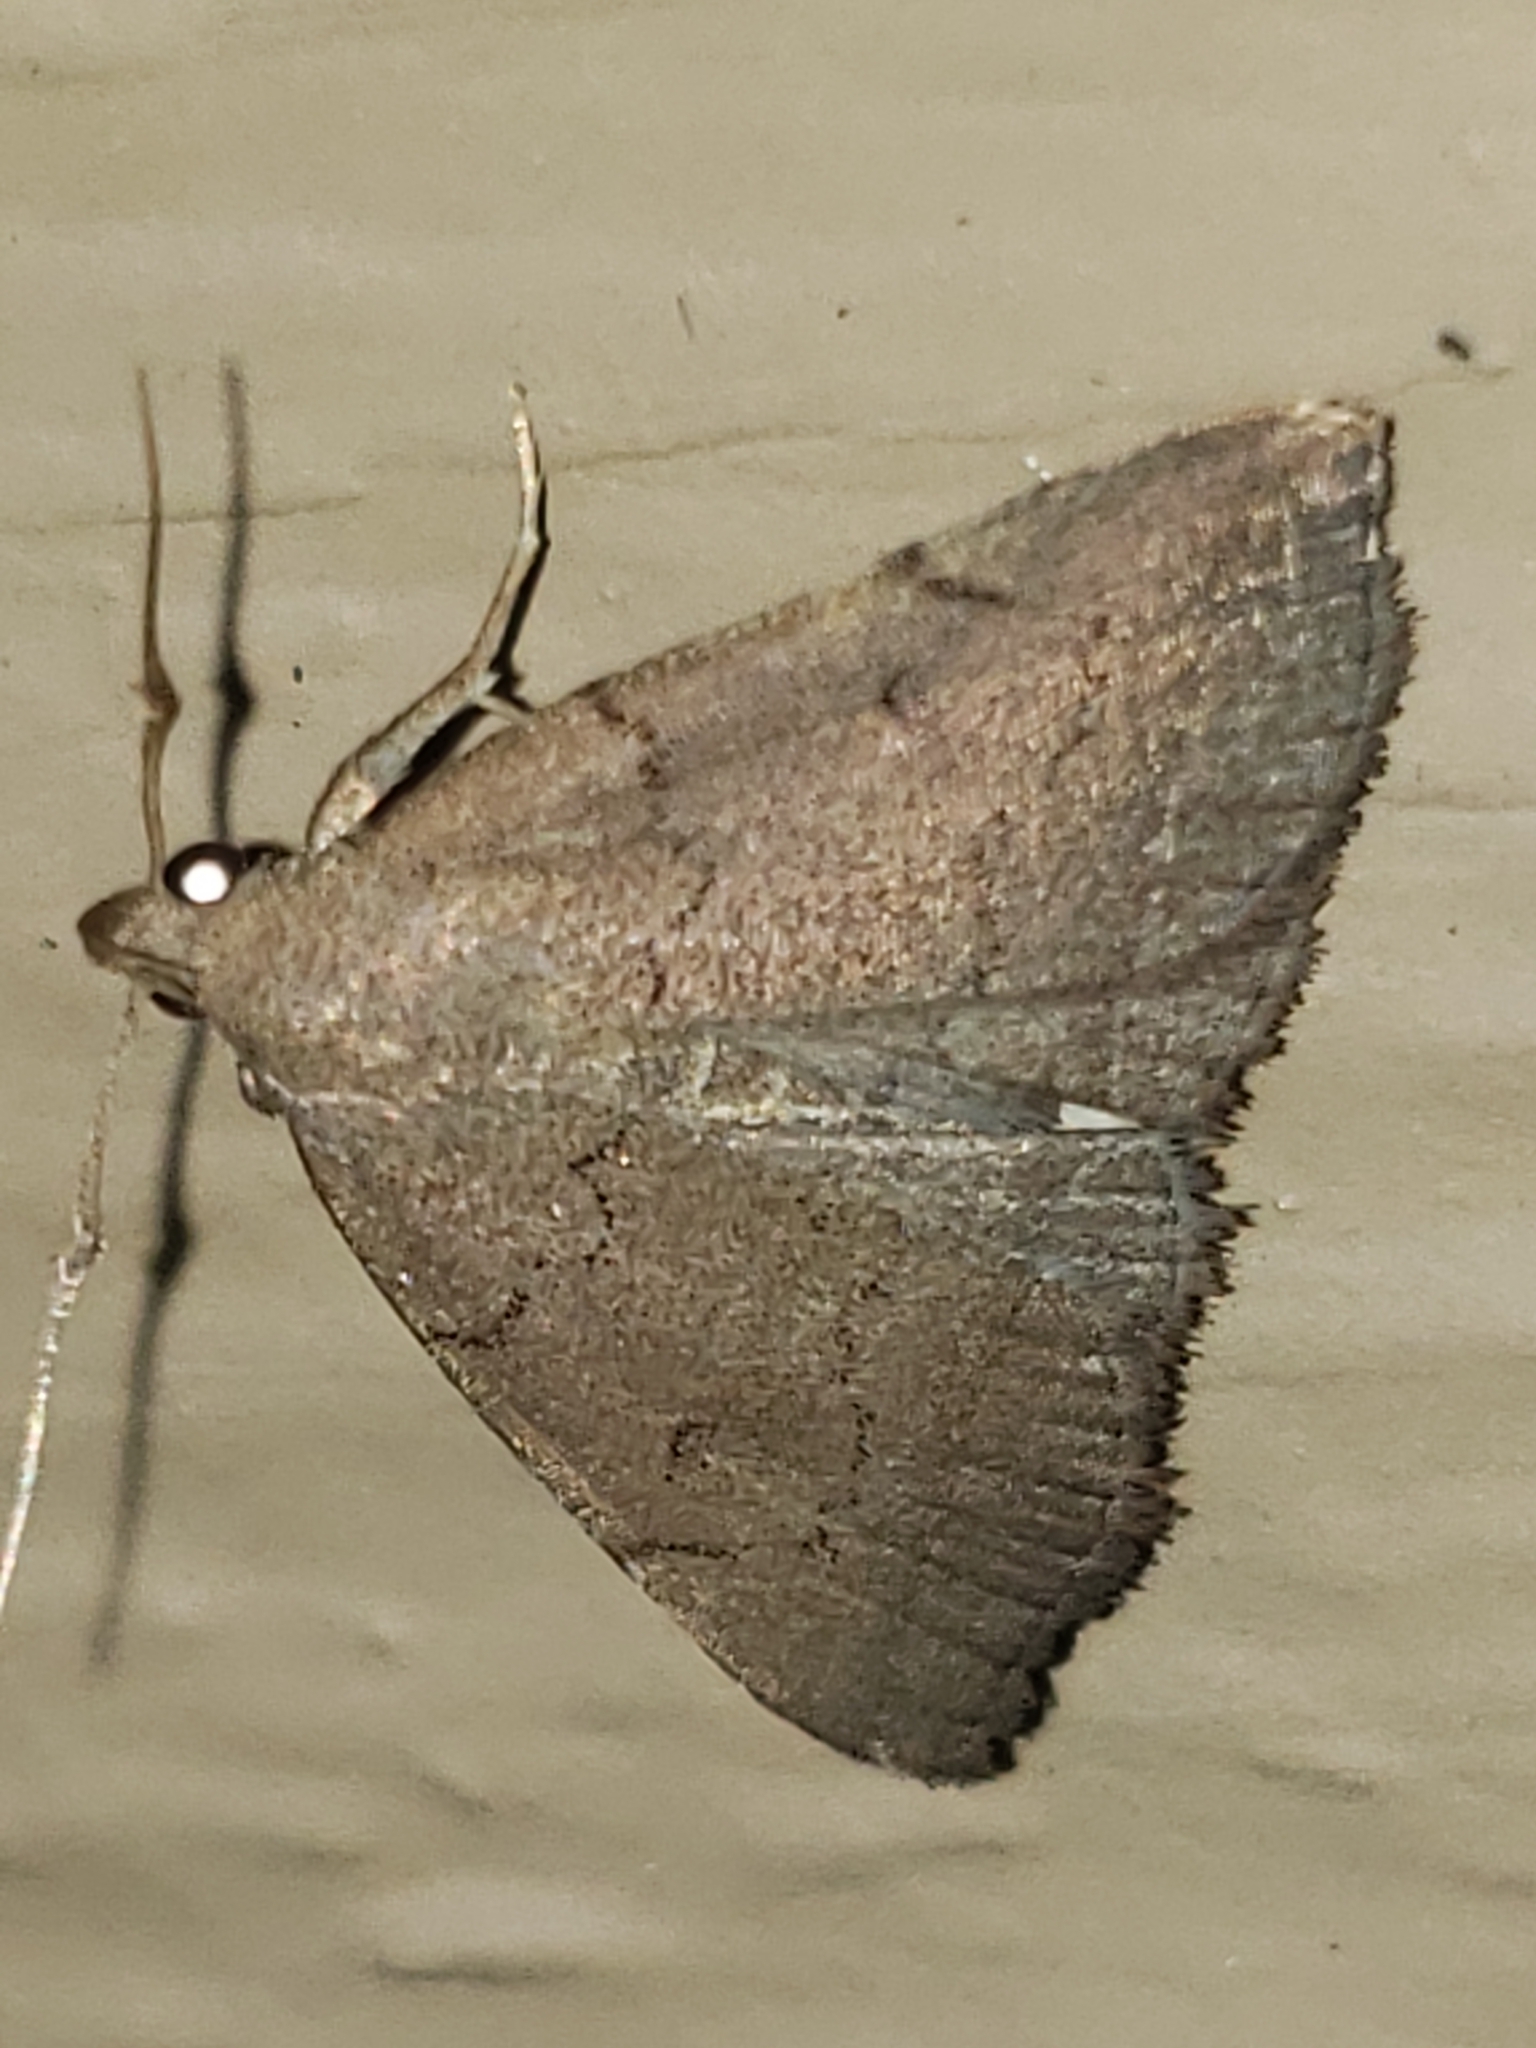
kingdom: Animalia
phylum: Arthropoda
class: Insecta
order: Lepidoptera
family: Erebidae
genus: Zanclognatha
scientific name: Zanclognatha protumnusalis
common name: Complex fan-foot
